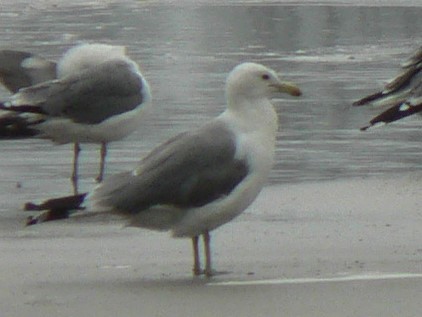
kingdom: Animalia
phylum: Chordata
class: Aves
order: Charadriiformes
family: Laridae
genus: Larus
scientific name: Larus californicus
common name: California gull
